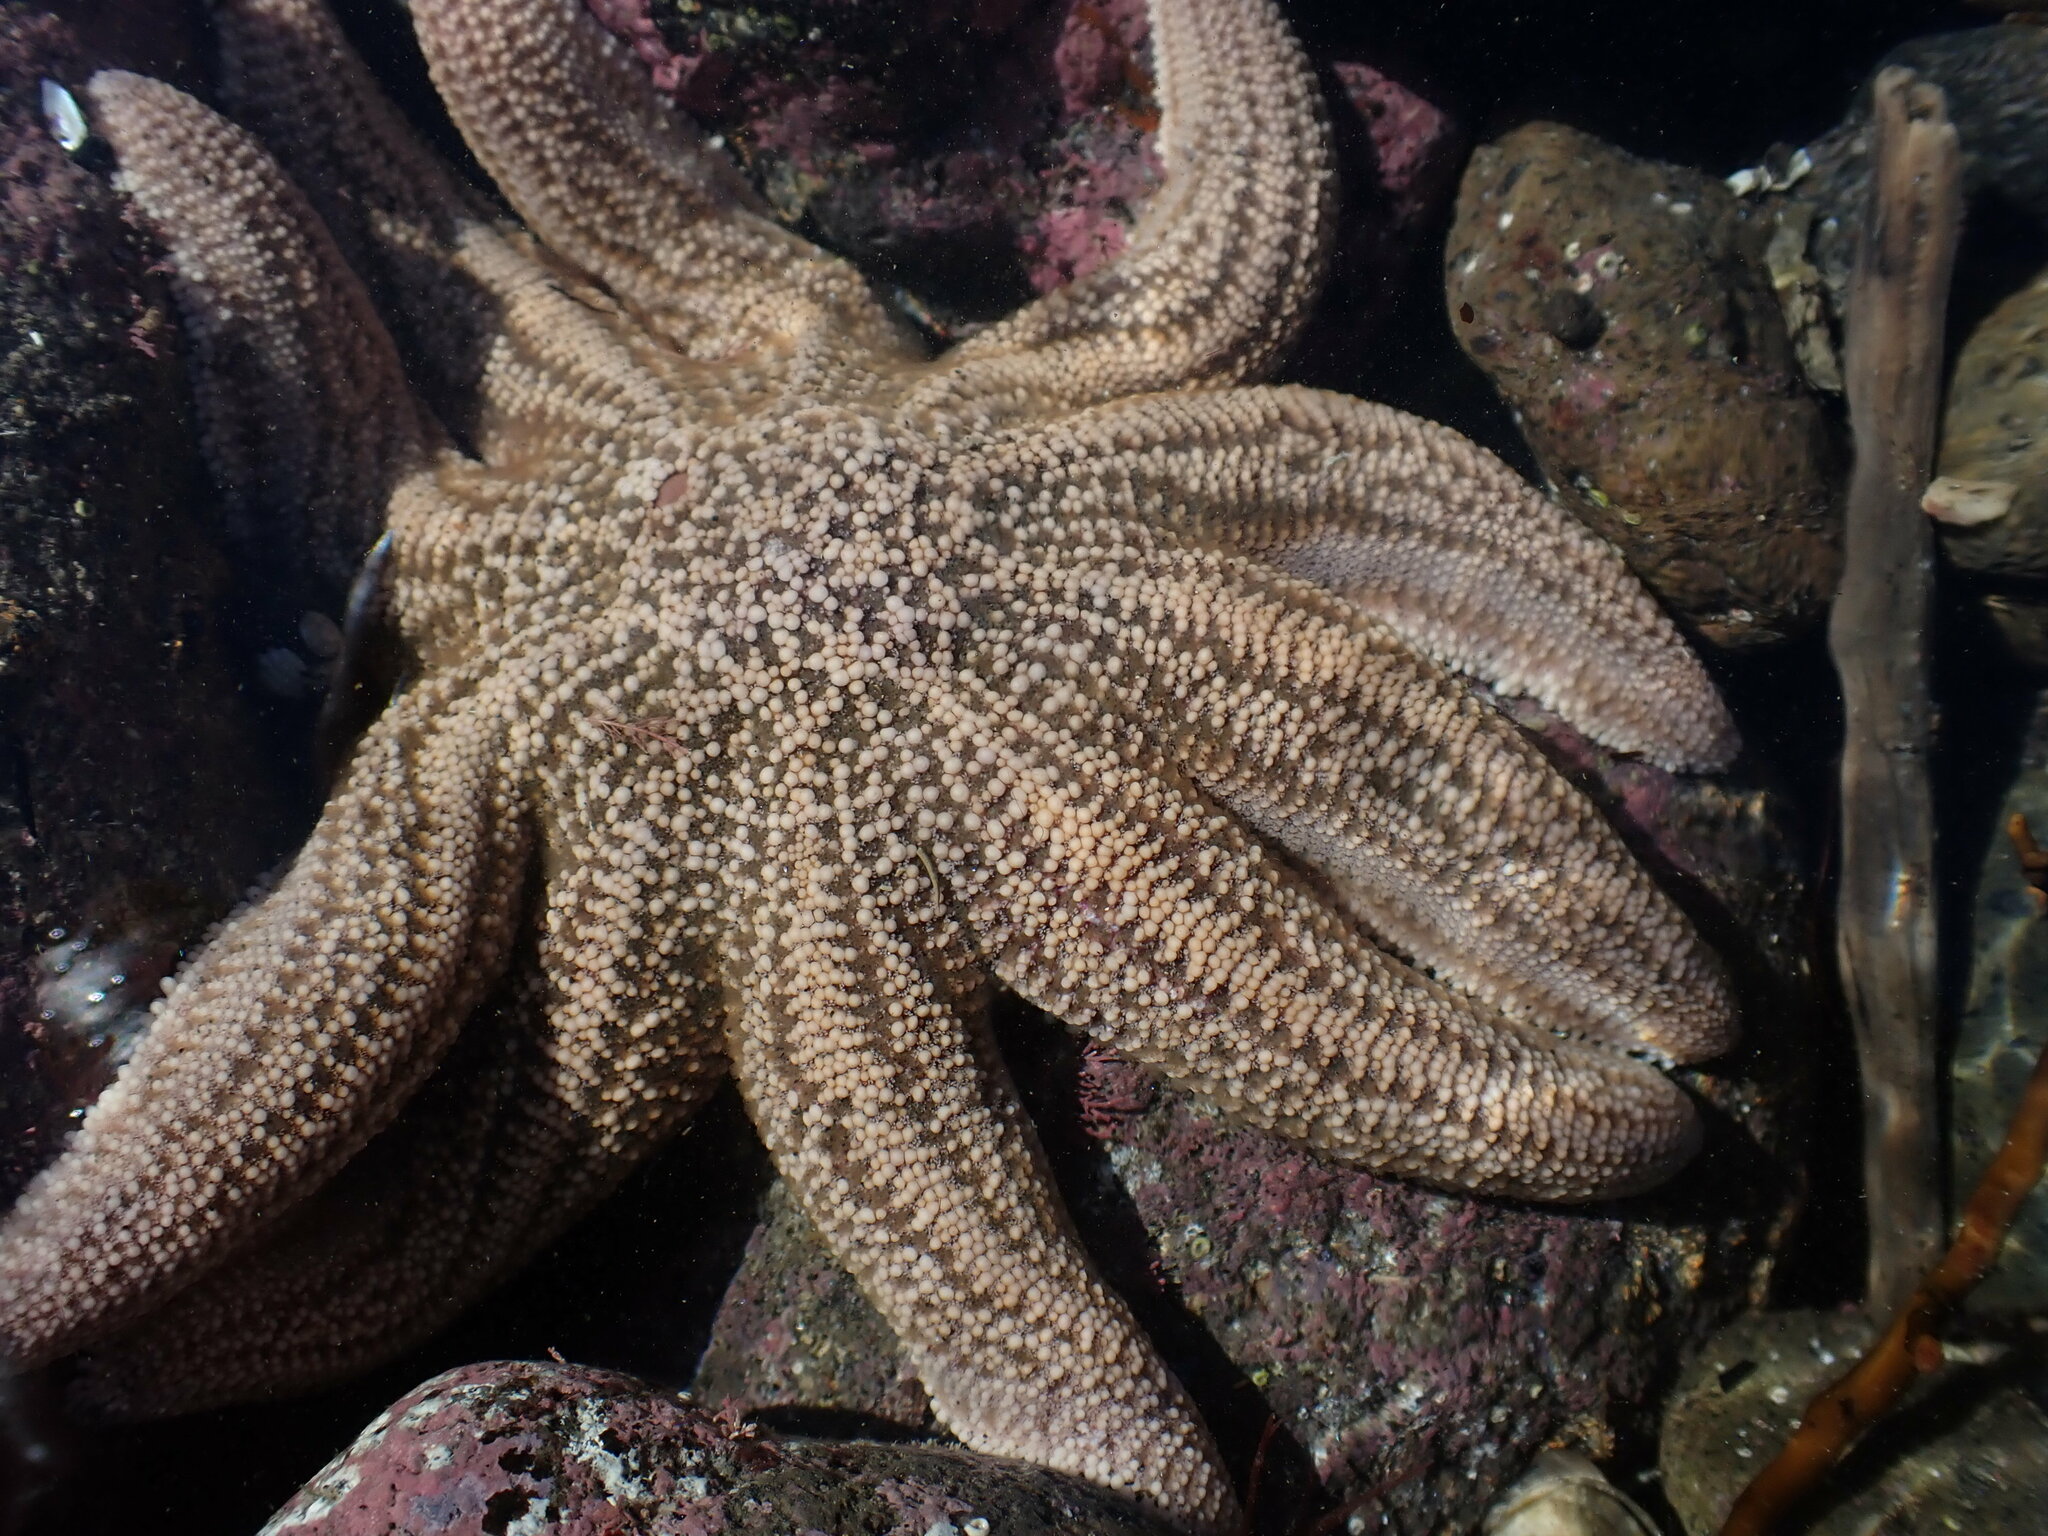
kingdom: Animalia
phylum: Echinodermata
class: Asteroidea
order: Forcipulatida
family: Stichasteridae
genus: Stichaster
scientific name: Stichaster australis
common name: Reef starfish
